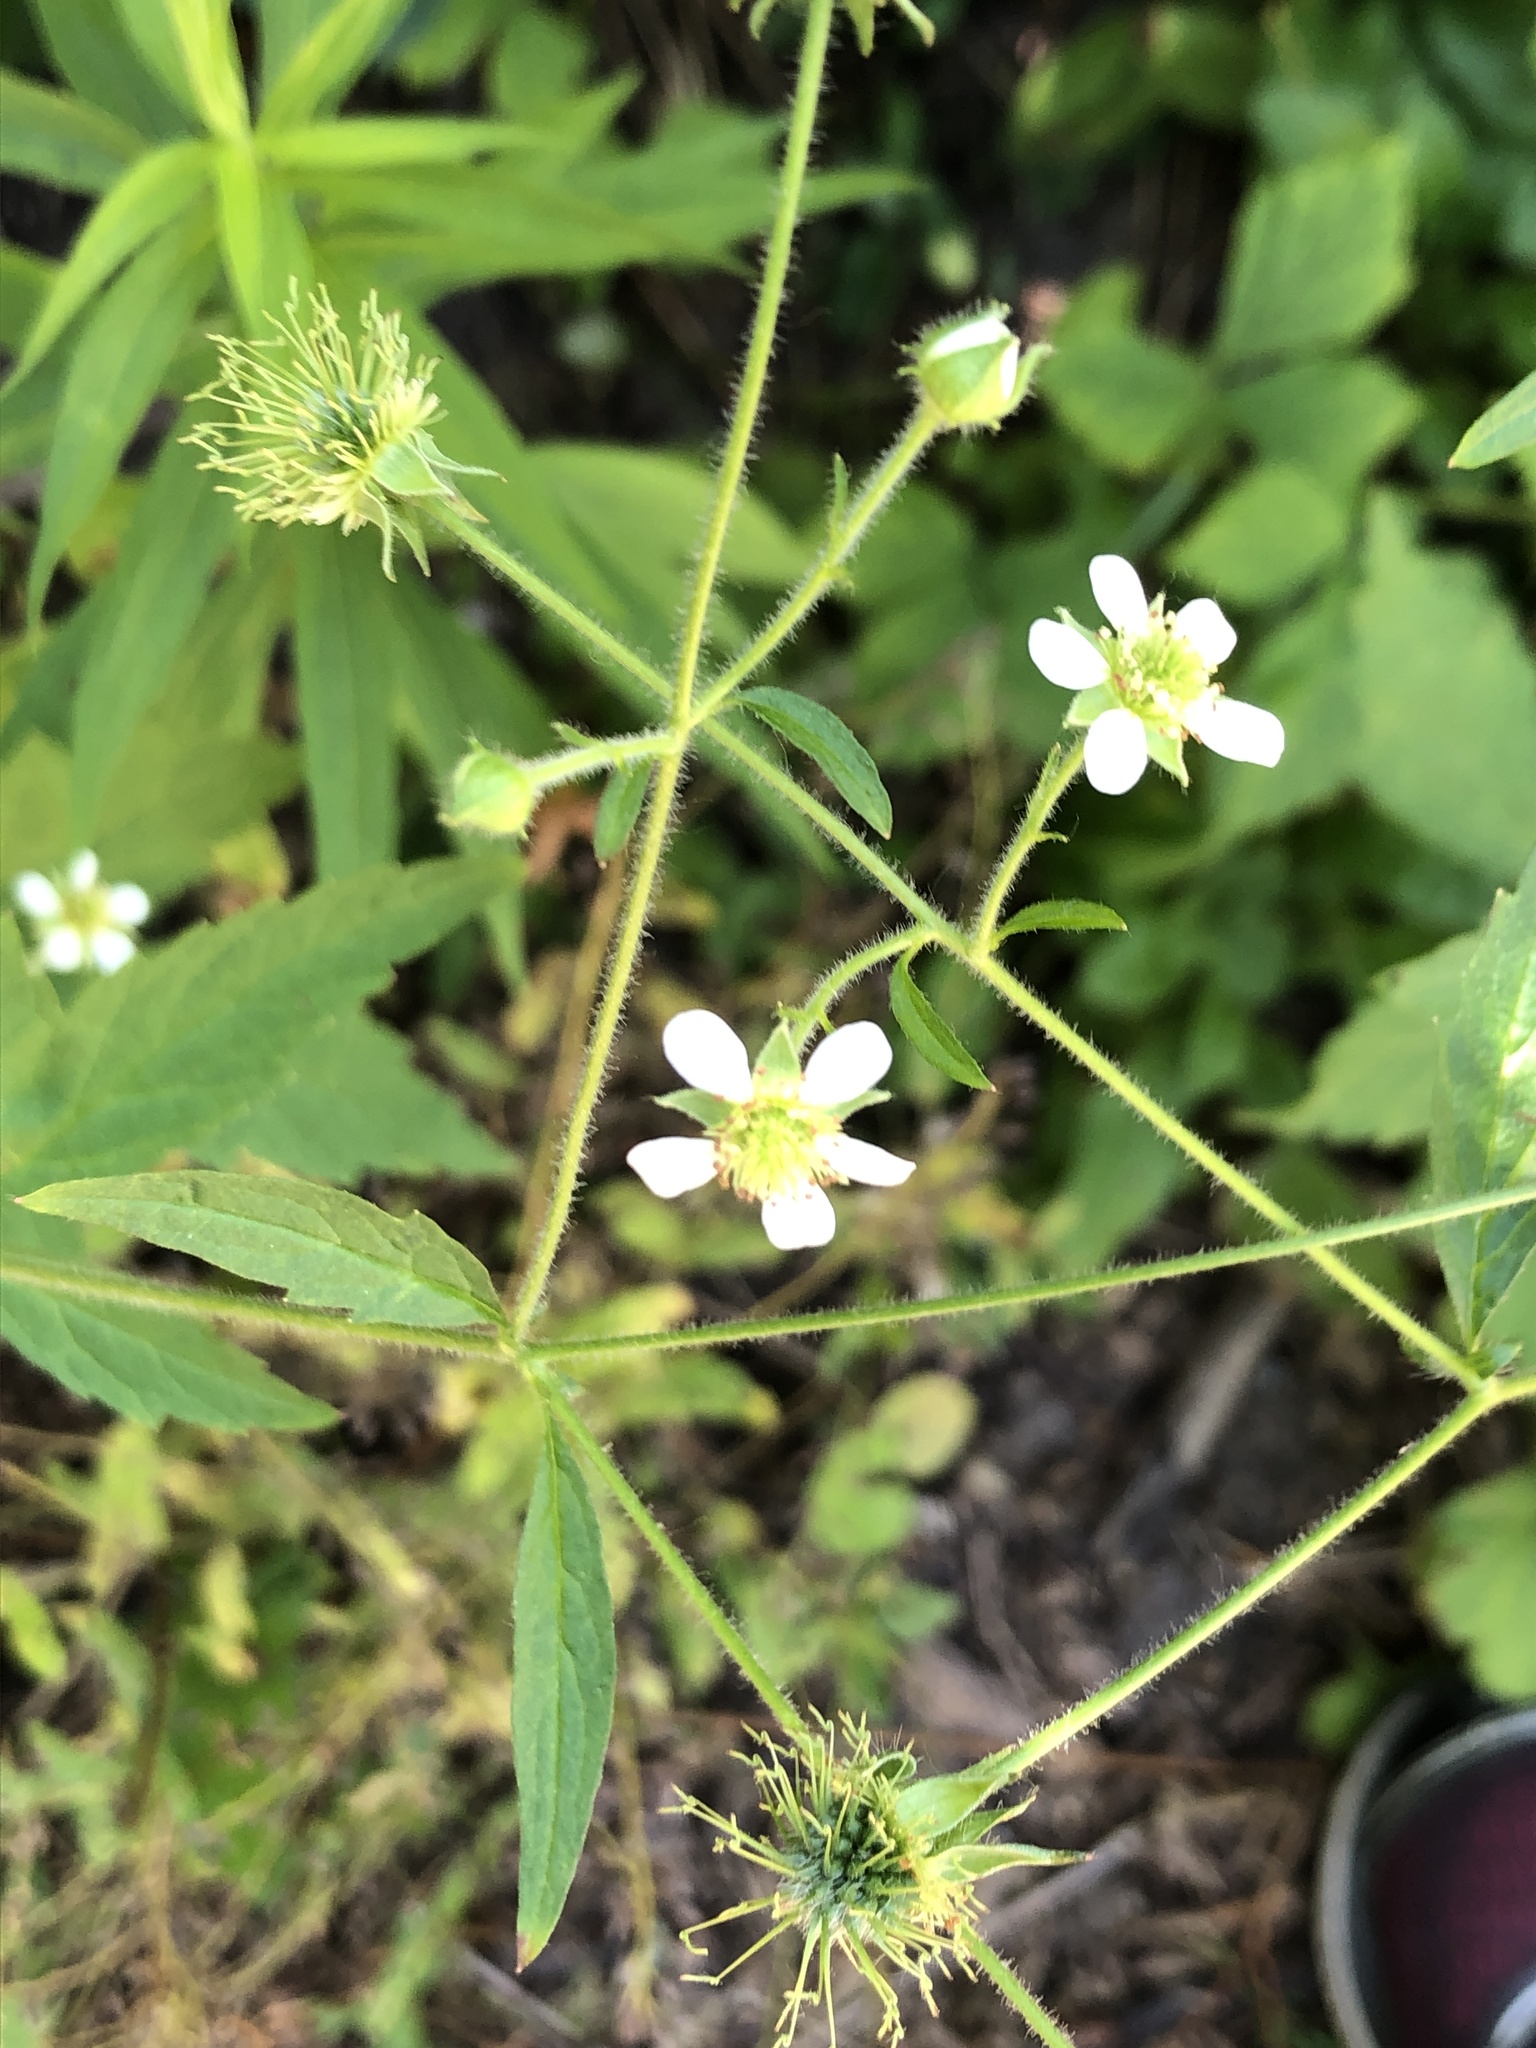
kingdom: Plantae
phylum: Tracheophyta
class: Magnoliopsida
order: Rosales
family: Rosaceae
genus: Geum
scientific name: Geum canadense
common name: White avens
